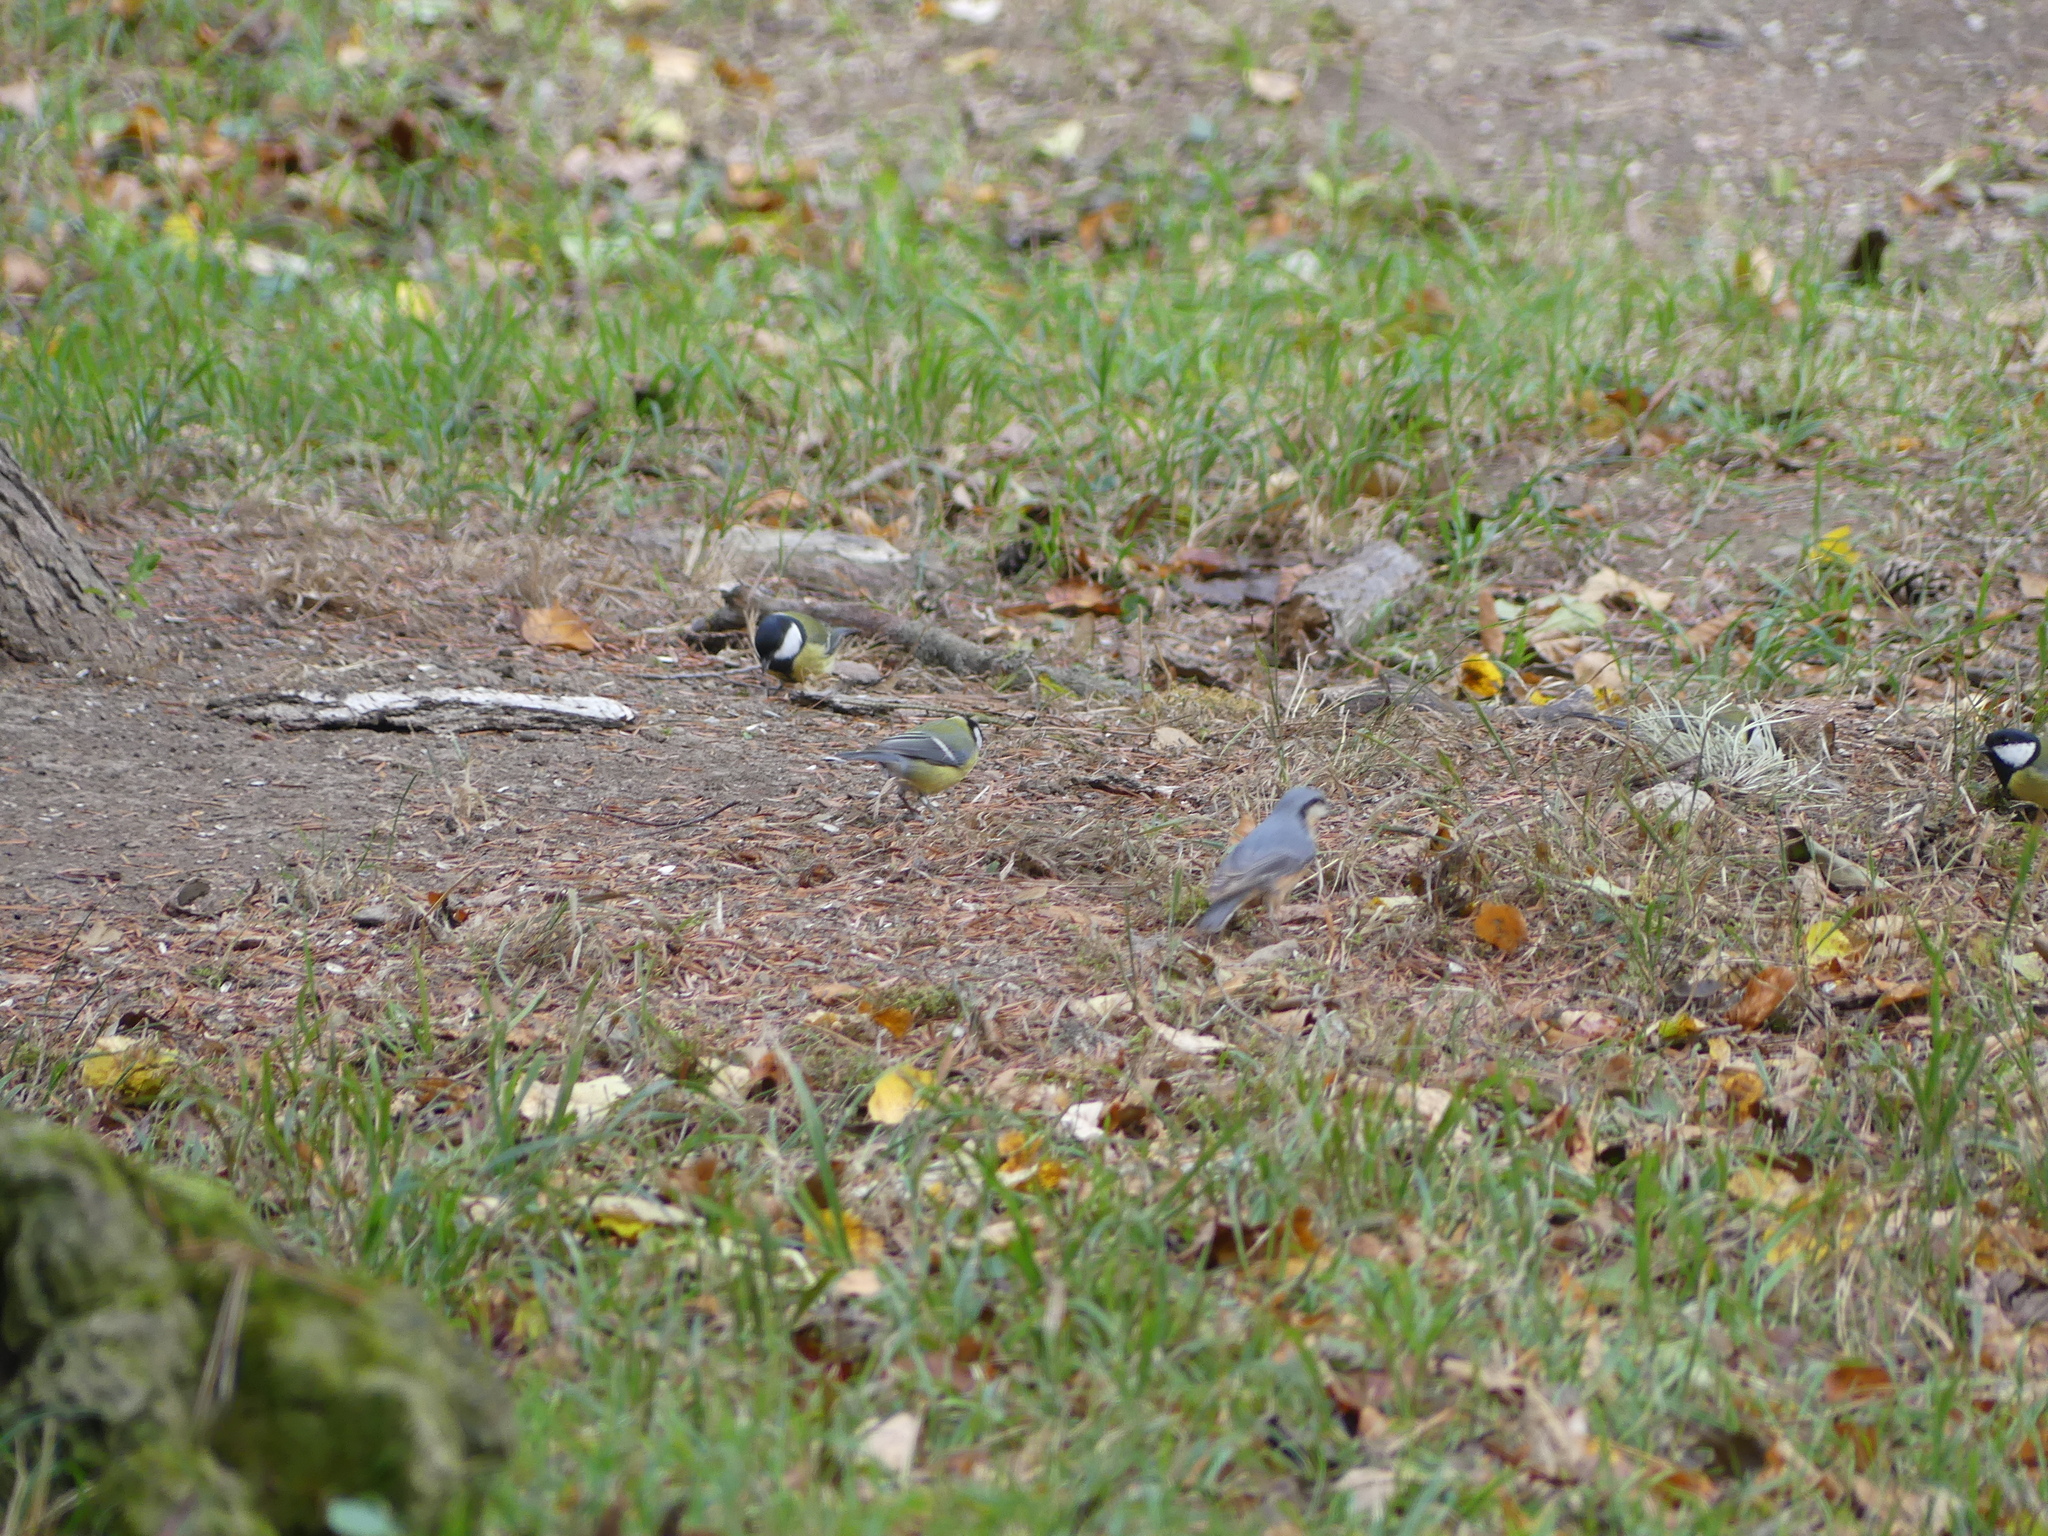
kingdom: Animalia
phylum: Chordata
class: Aves
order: Passeriformes
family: Paridae
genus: Parus
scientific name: Parus major
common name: Great tit
